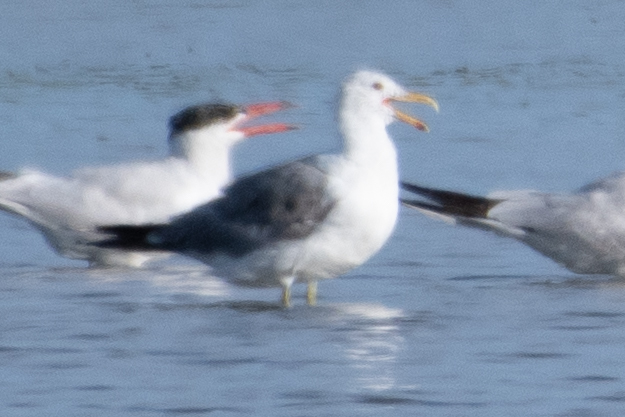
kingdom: Animalia
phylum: Chordata
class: Aves
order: Charadriiformes
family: Laridae
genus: Larus
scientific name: Larus californicus
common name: California gull
